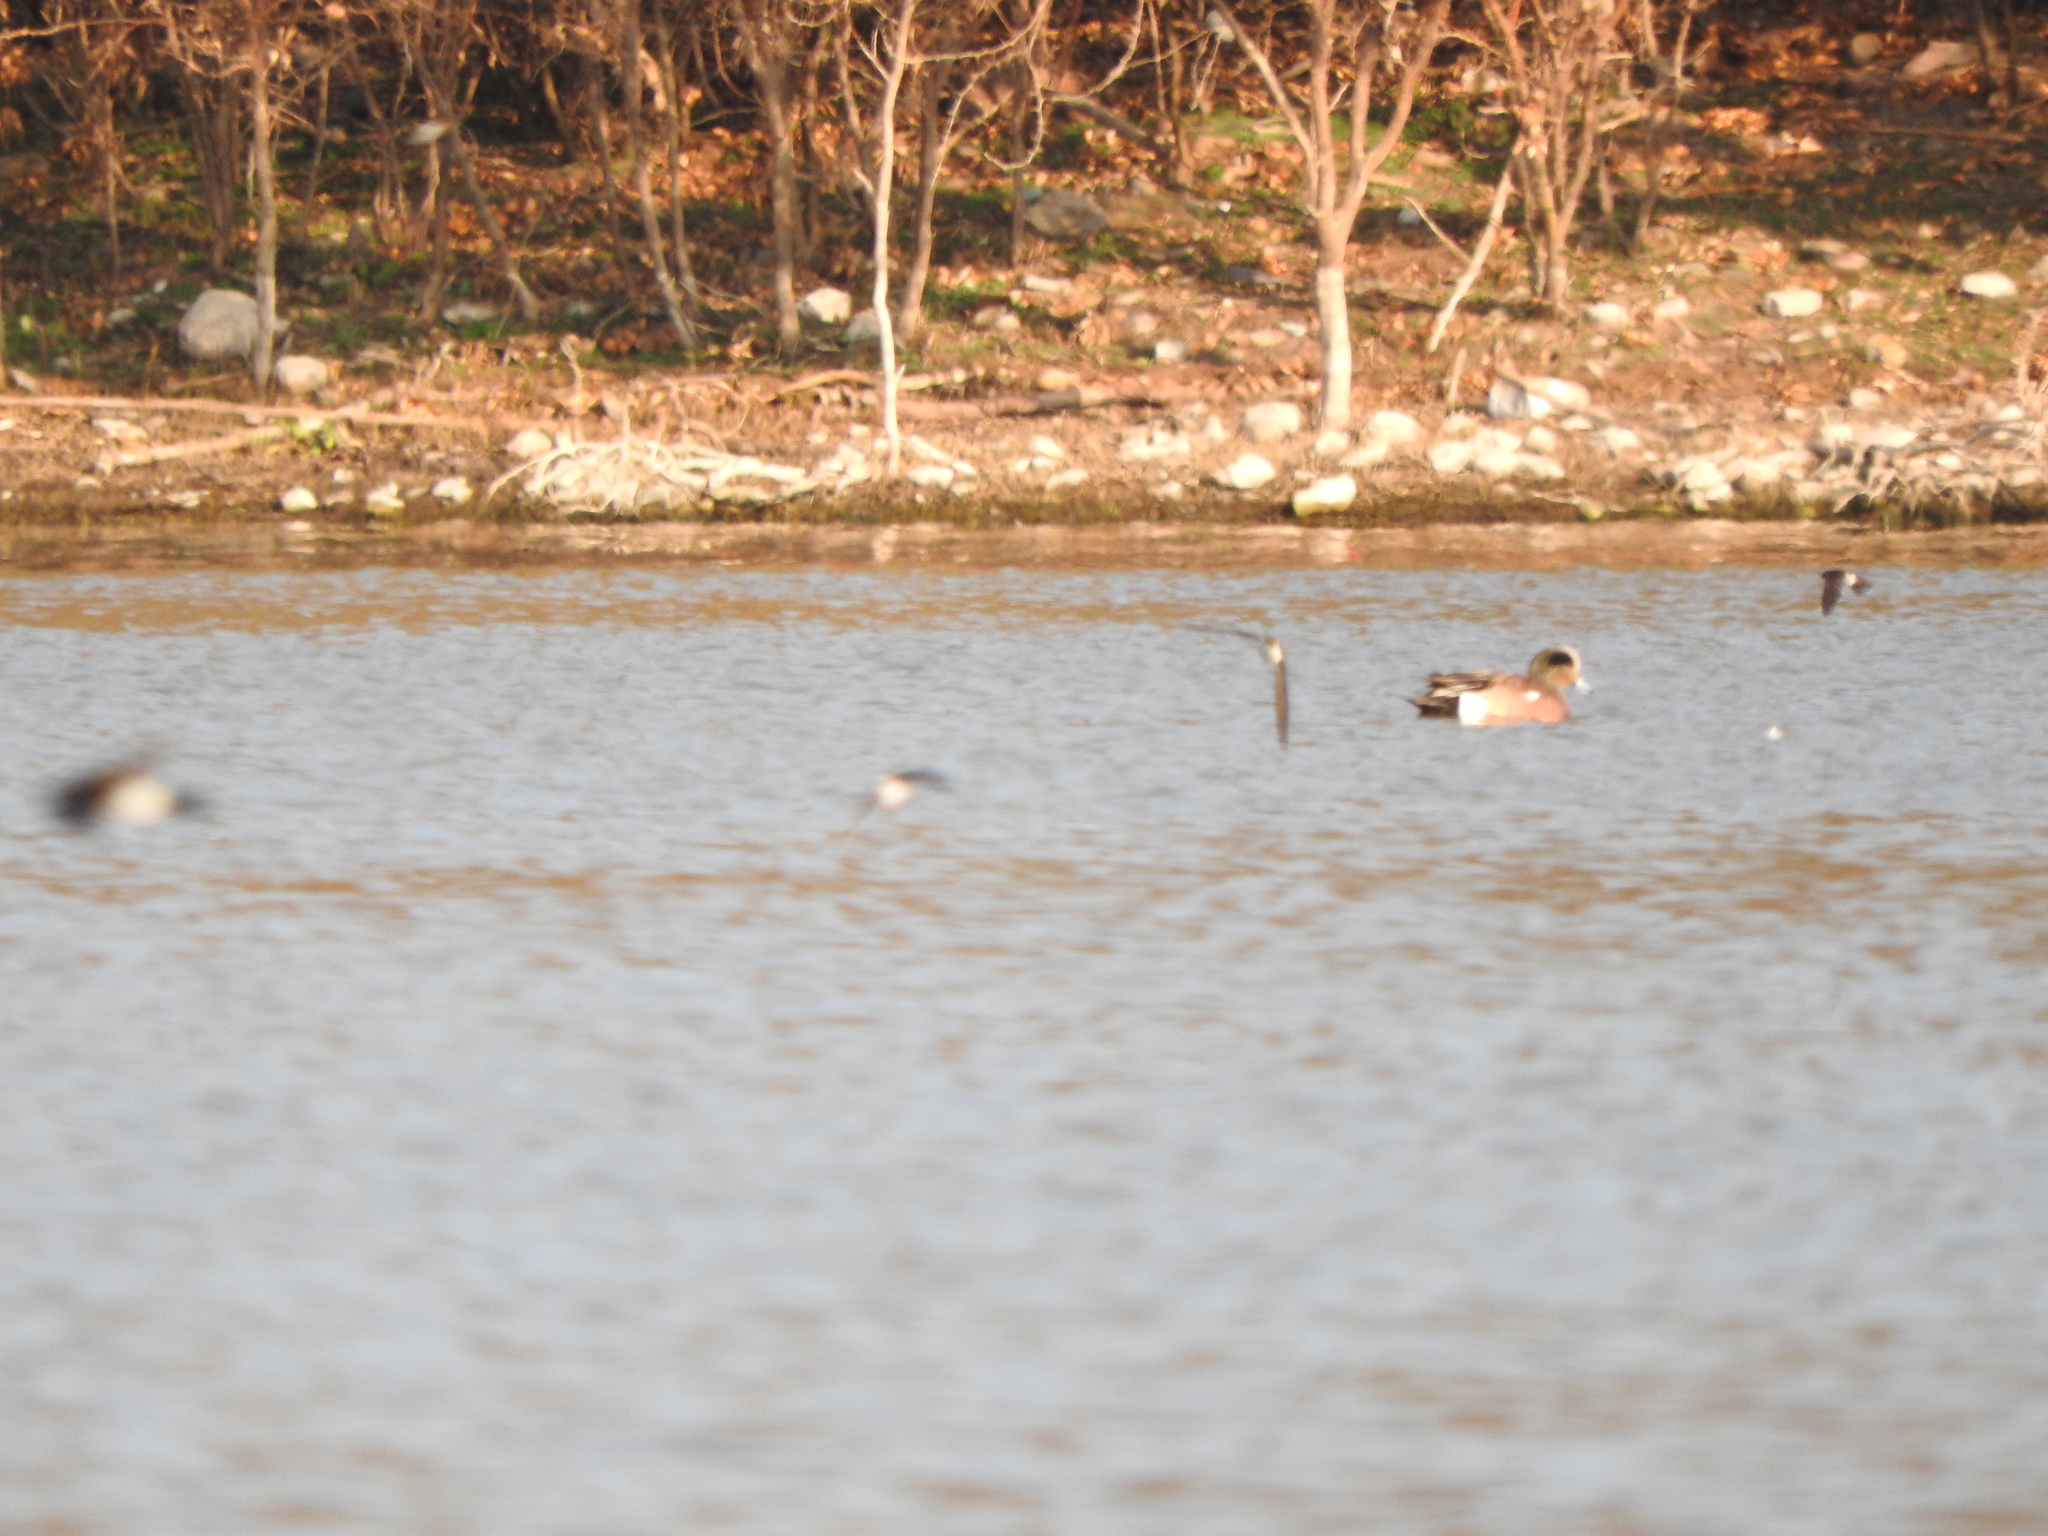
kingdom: Animalia
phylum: Chordata
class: Aves
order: Anseriformes
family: Anatidae
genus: Mareca
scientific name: Mareca americana
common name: American wigeon
